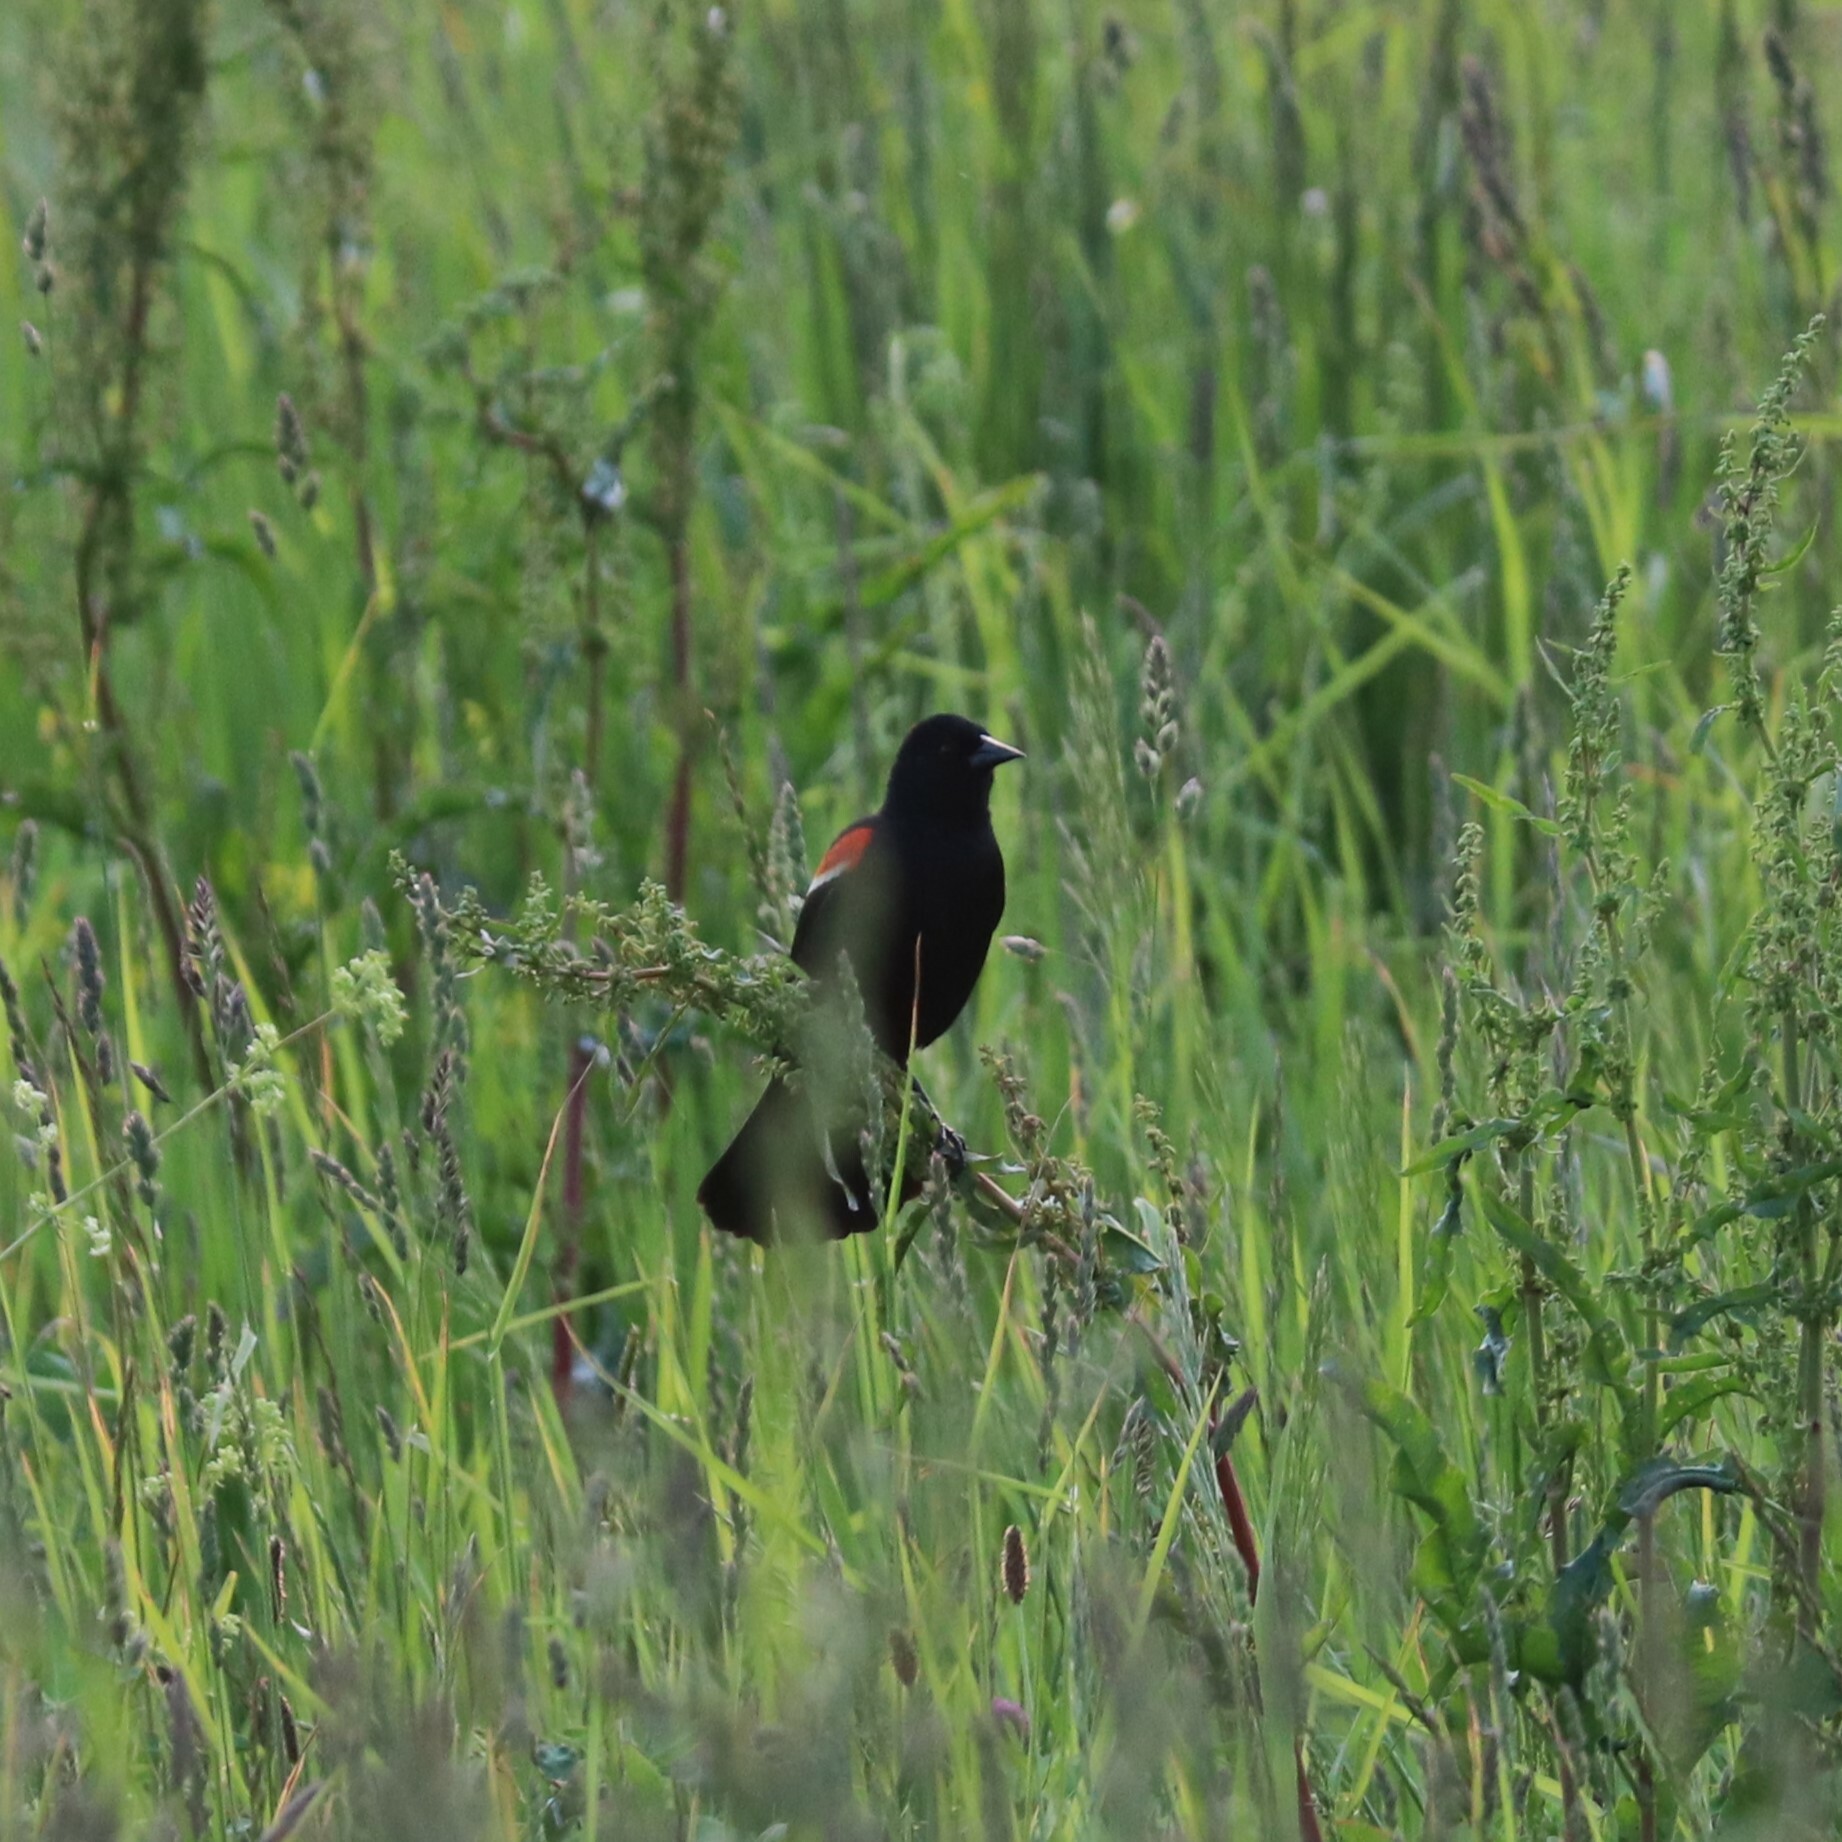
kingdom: Animalia
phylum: Chordata
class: Aves
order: Passeriformes
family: Icteridae
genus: Agelaius
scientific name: Agelaius phoeniceus
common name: Red-winged blackbird
